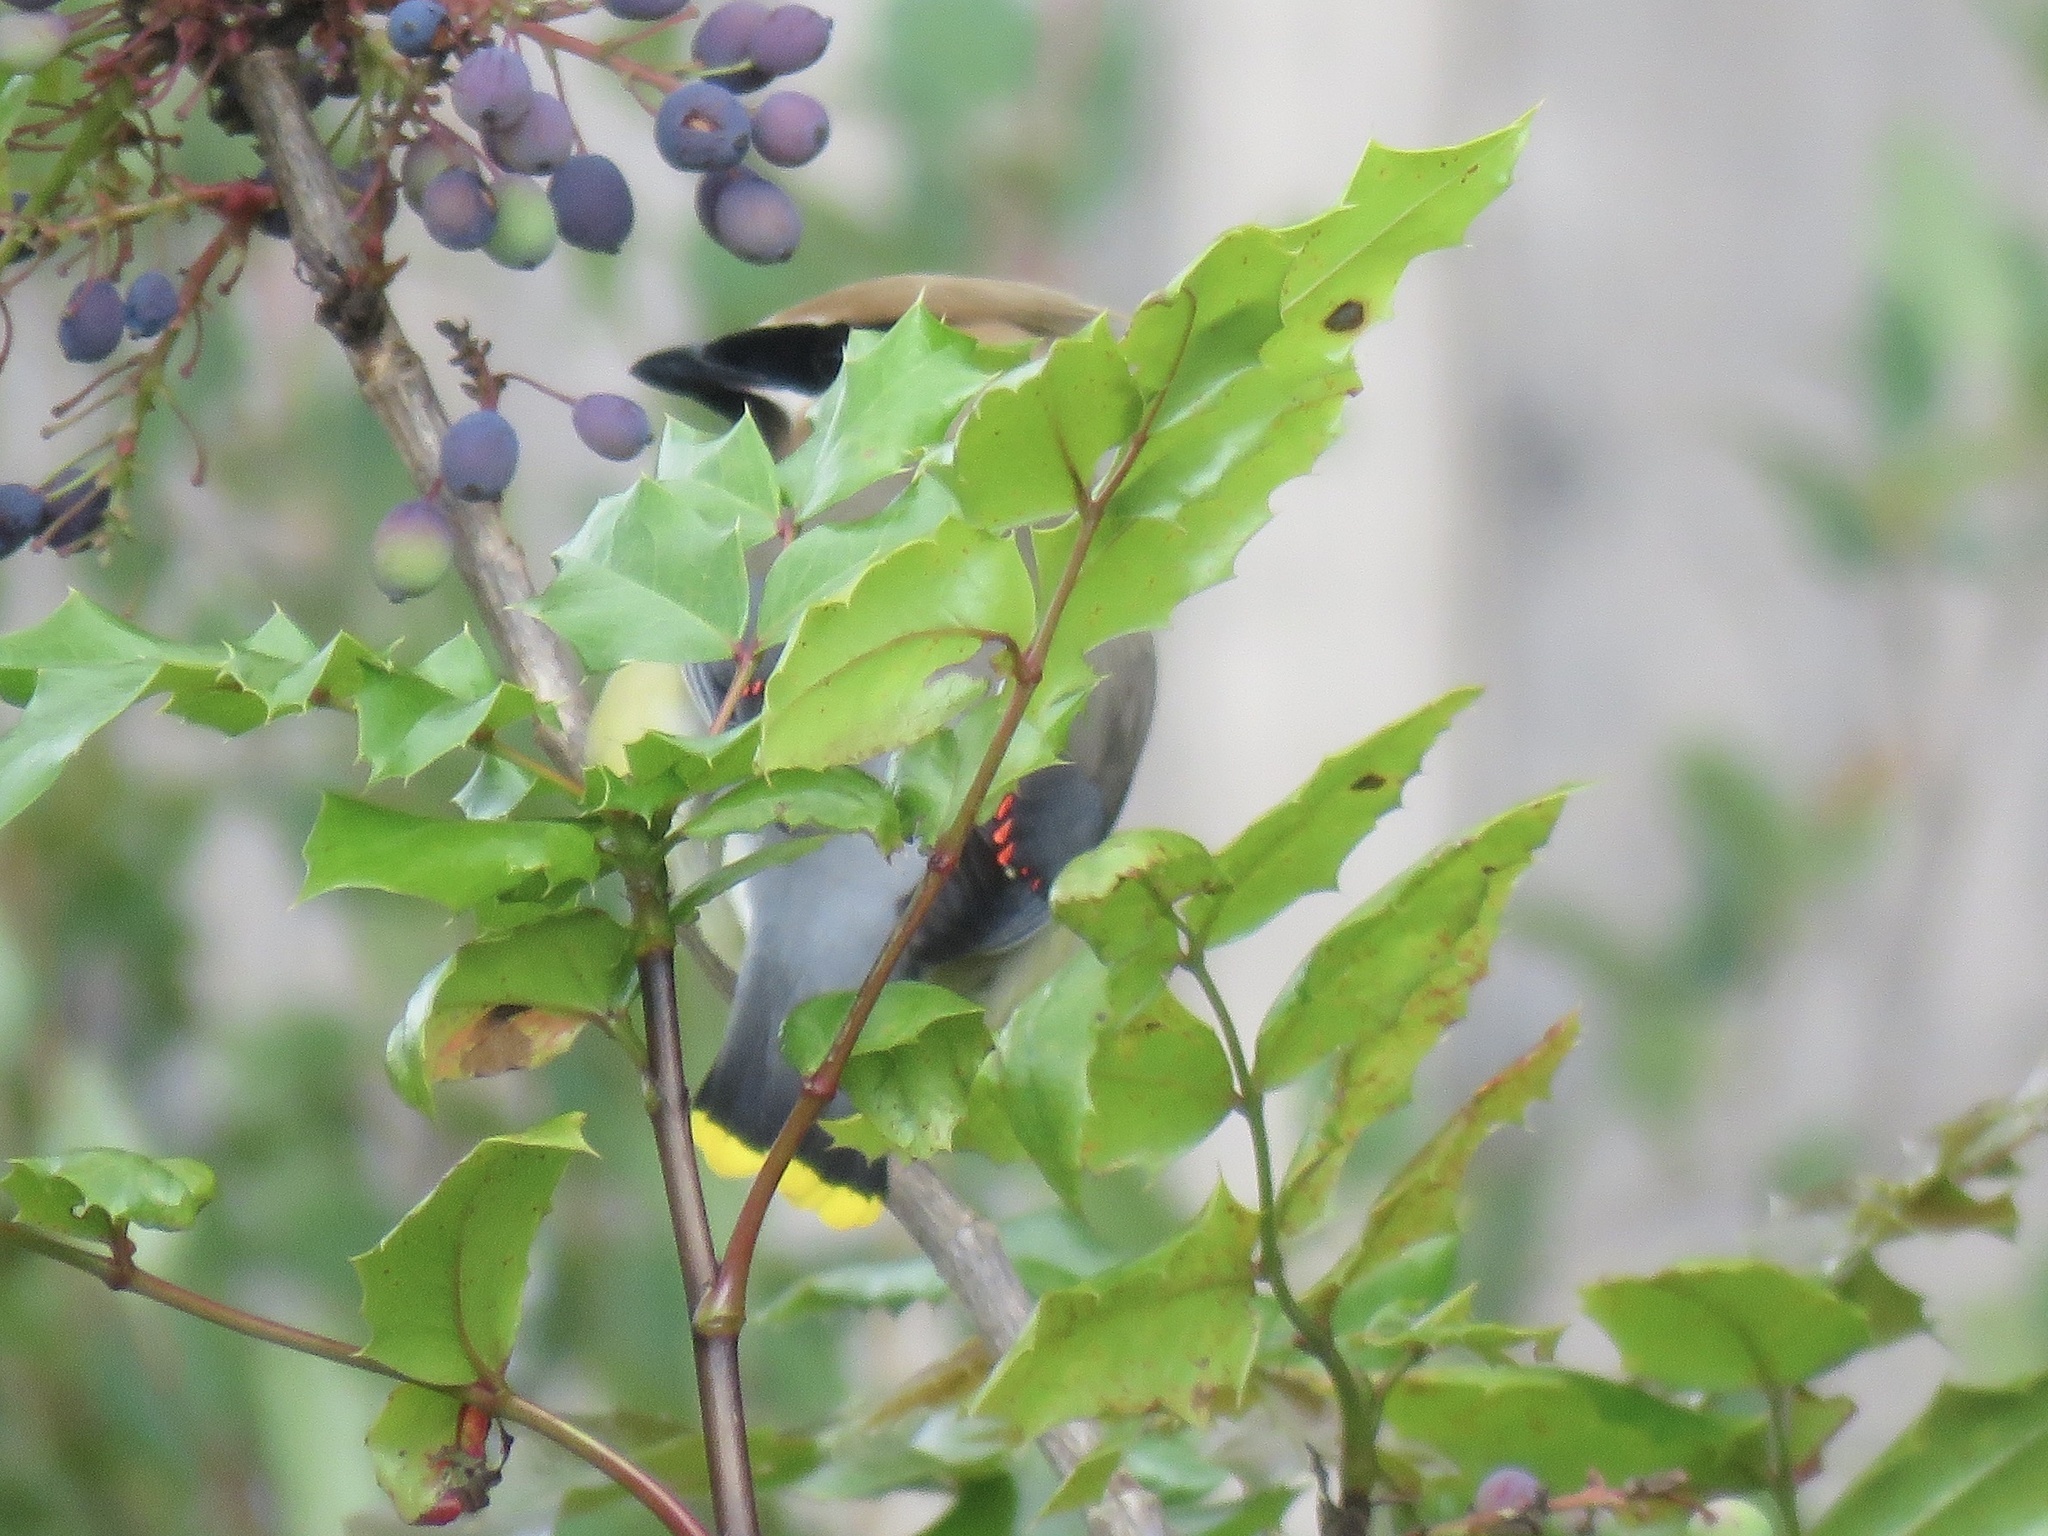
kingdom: Animalia
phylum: Chordata
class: Aves
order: Passeriformes
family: Bombycillidae
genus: Bombycilla
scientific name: Bombycilla cedrorum
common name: Cedar waxwing
